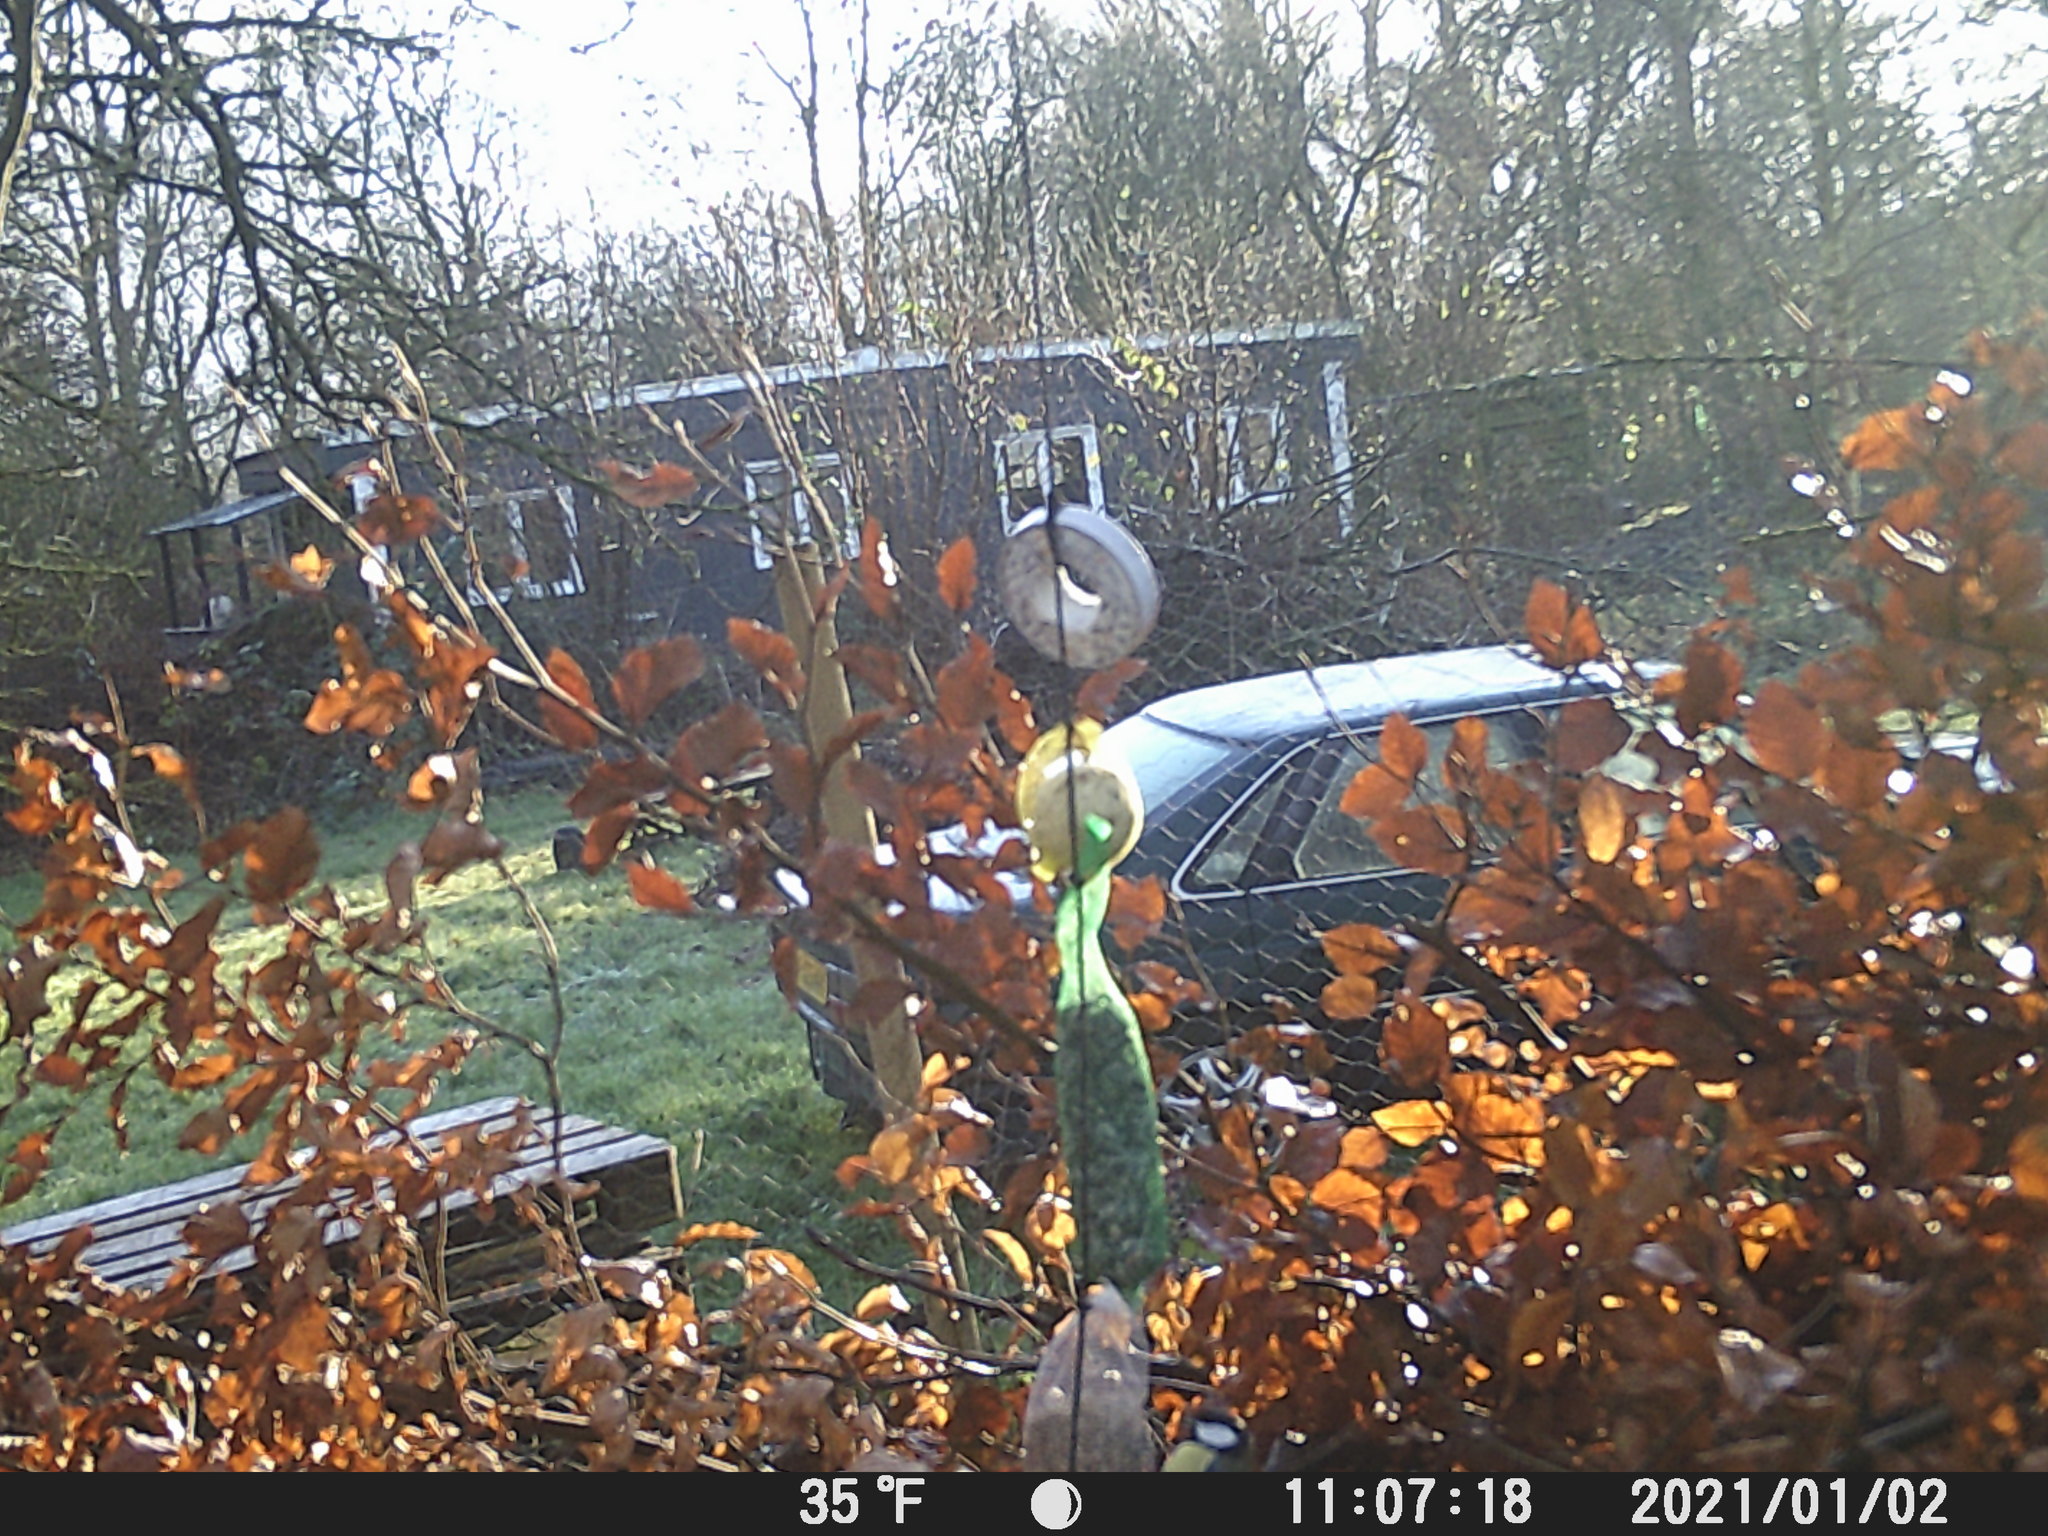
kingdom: Animalia
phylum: Chordata
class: Aves
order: Passeriformes
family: Paridae
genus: Parus
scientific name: Parus major
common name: Great tit
